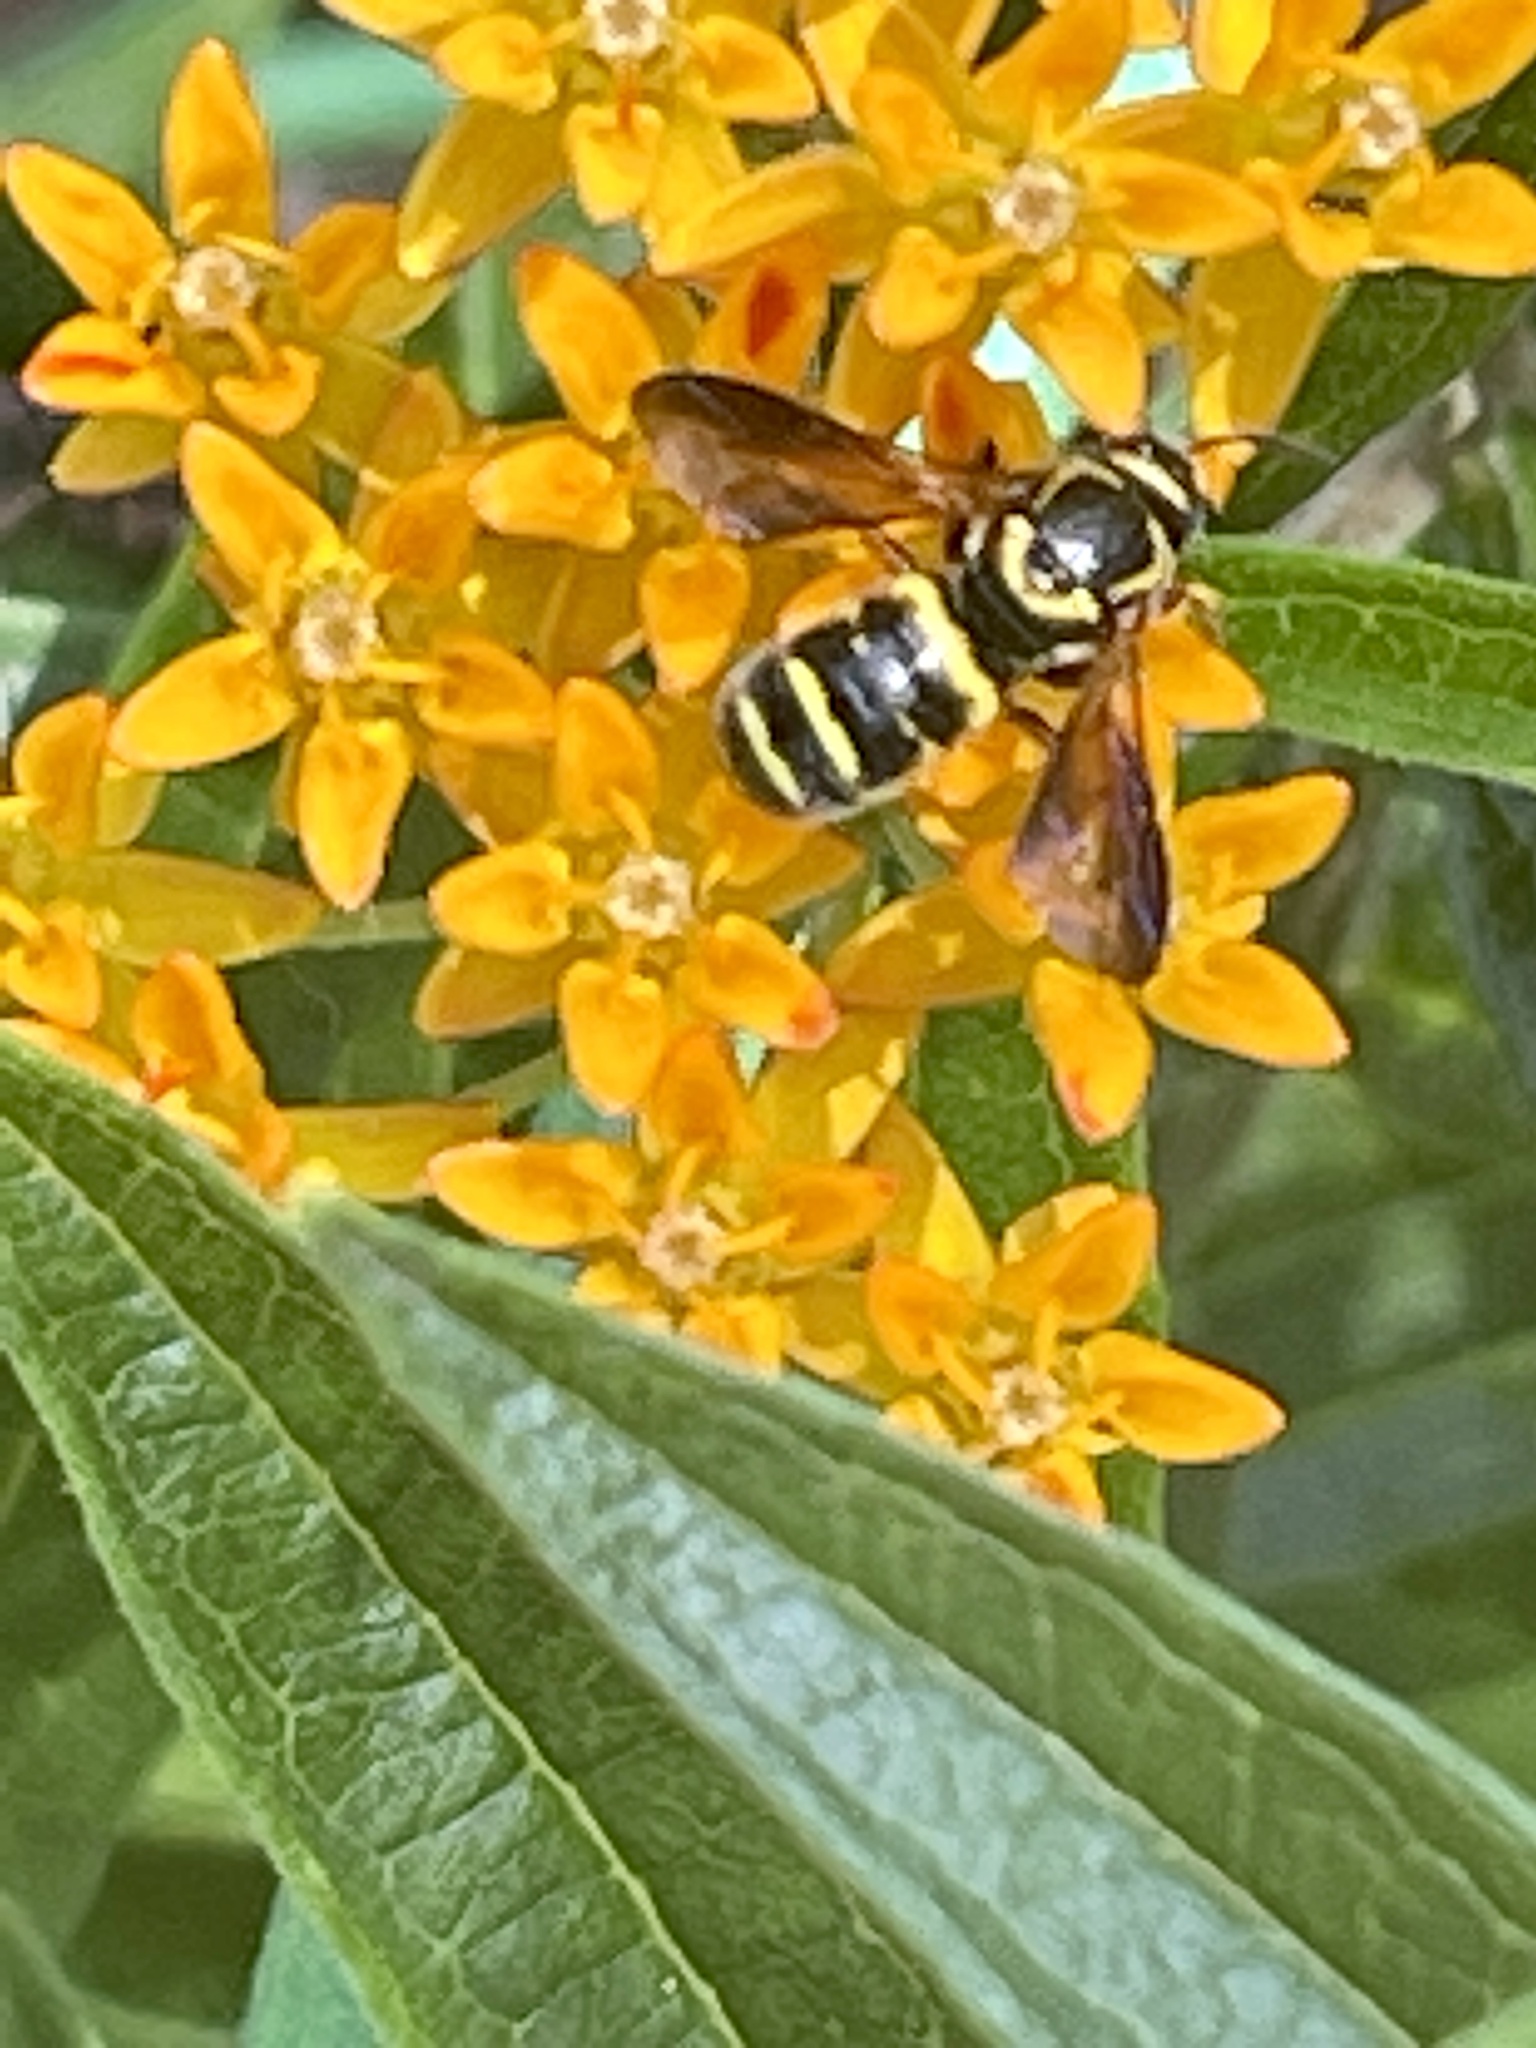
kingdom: Animalia
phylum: Arthropoda
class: Insecta
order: Hymenoptera
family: Megachilidae
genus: Stelis
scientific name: Stelis louisae
